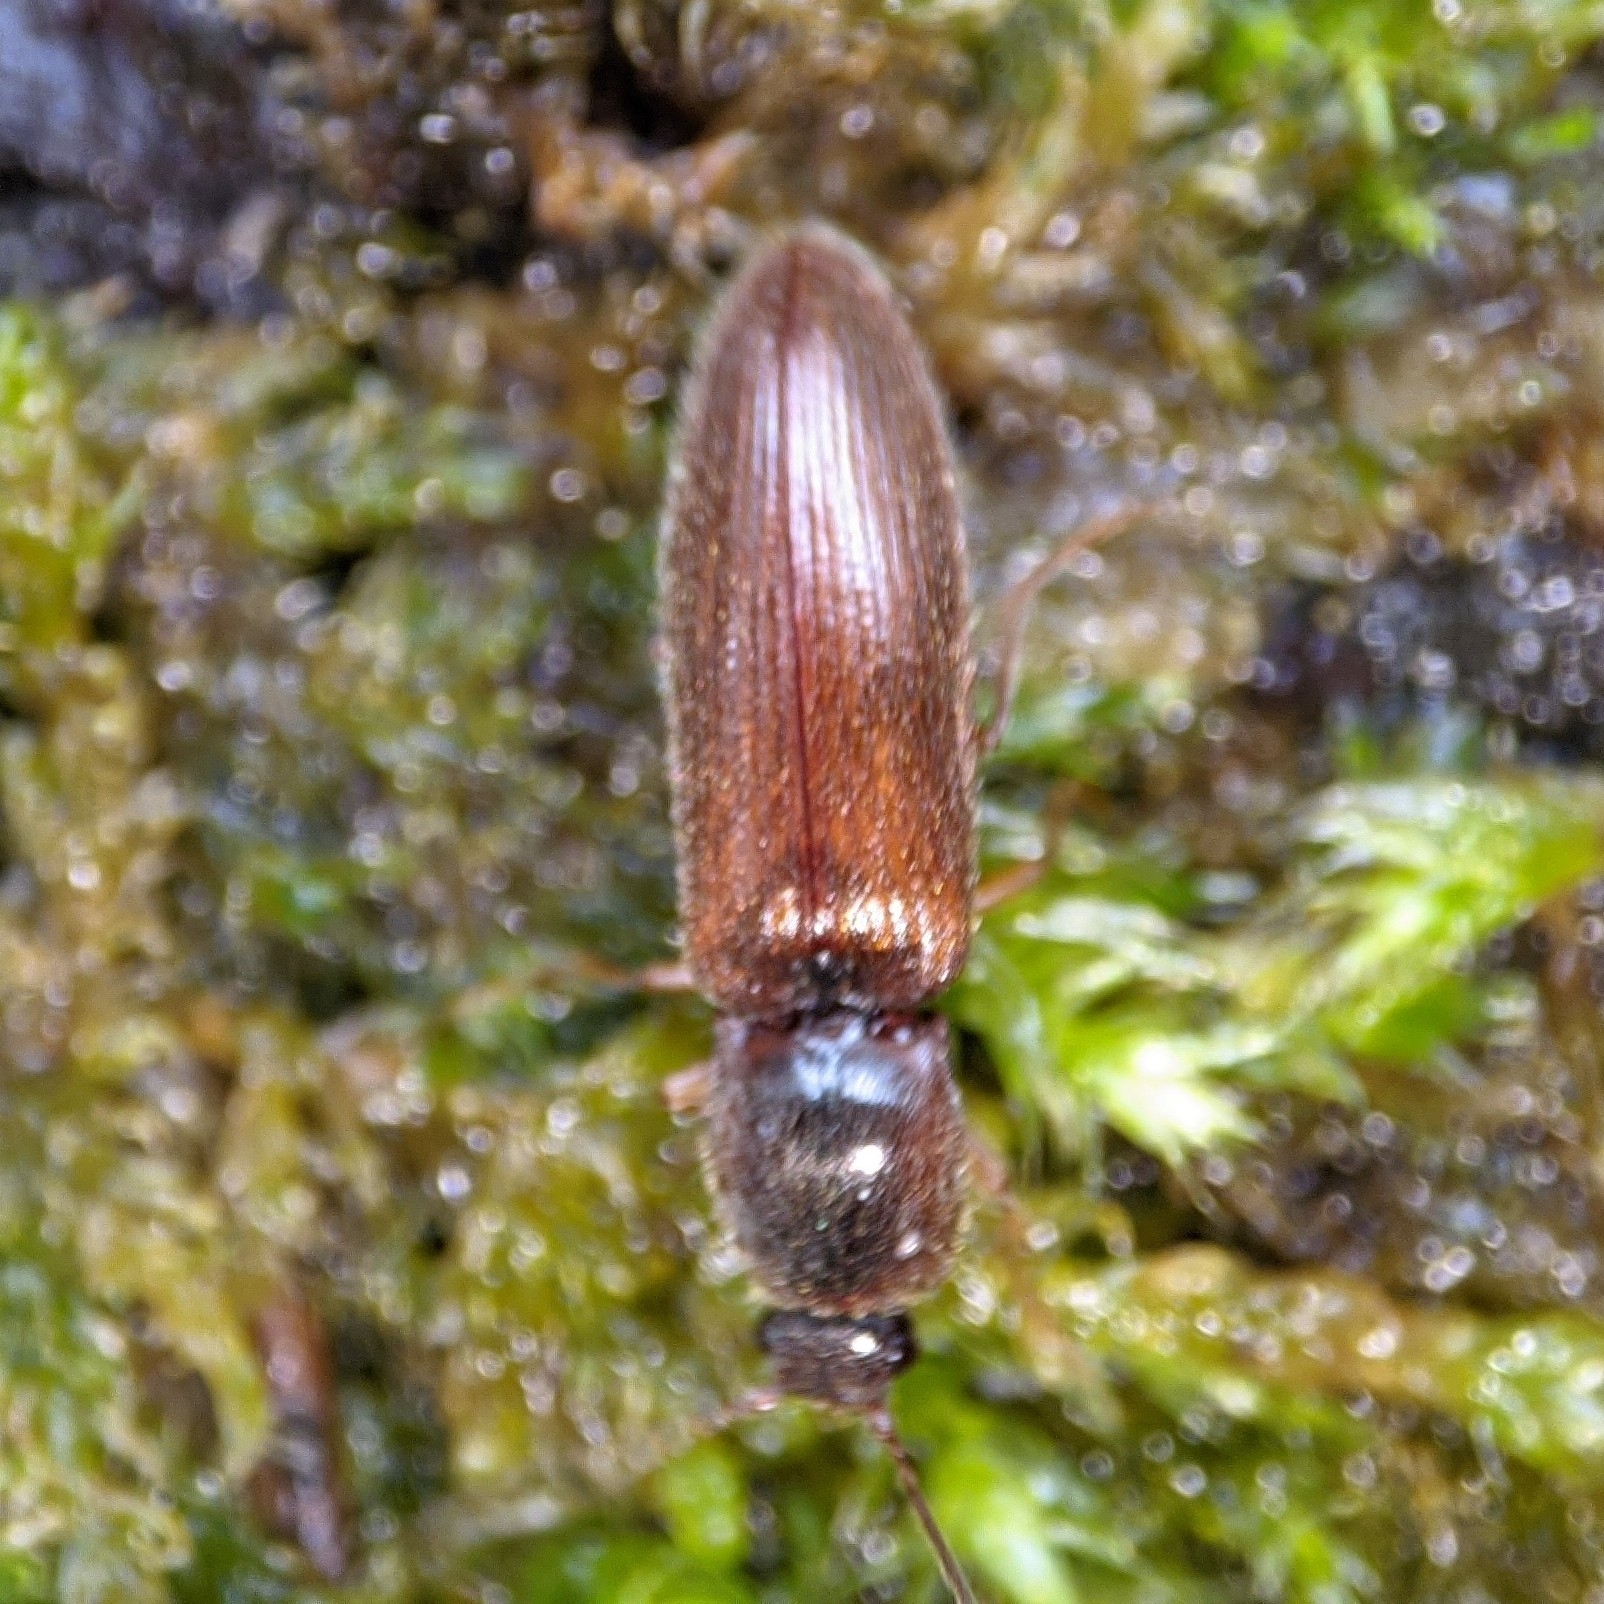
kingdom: Animalia
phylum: Arthropoda
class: Insecta
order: Coleoptera
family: Elateridae
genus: Athous
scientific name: Athous subfuscus
